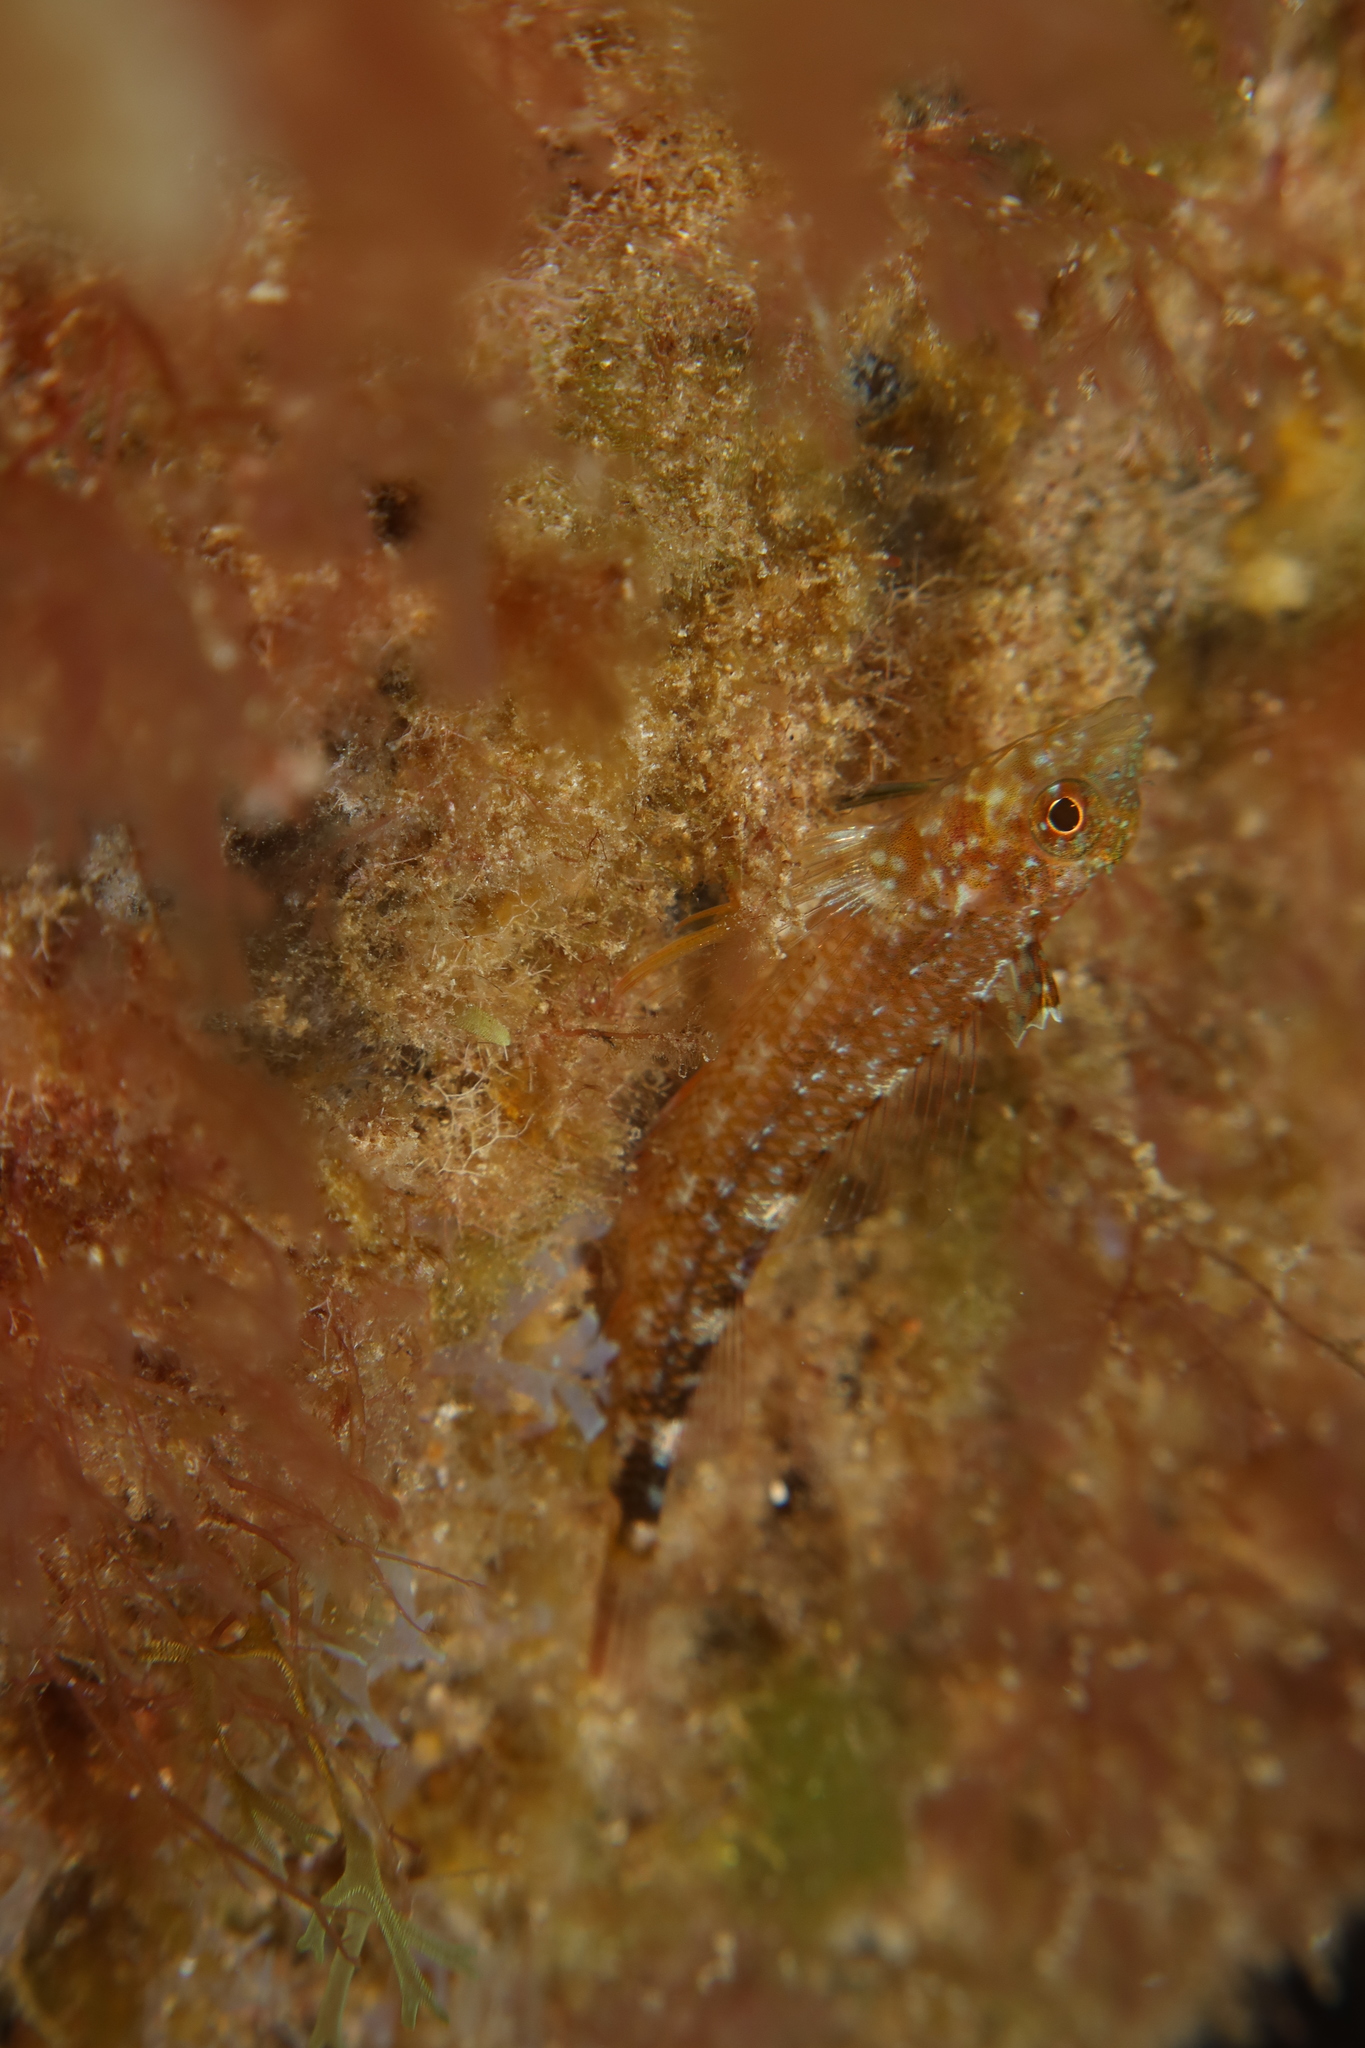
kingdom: Animalia
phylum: Chordata
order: Perciformes
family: Tripterygiidae
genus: Tripterygion
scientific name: Tripterygion delaisi
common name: Black-face blenny
